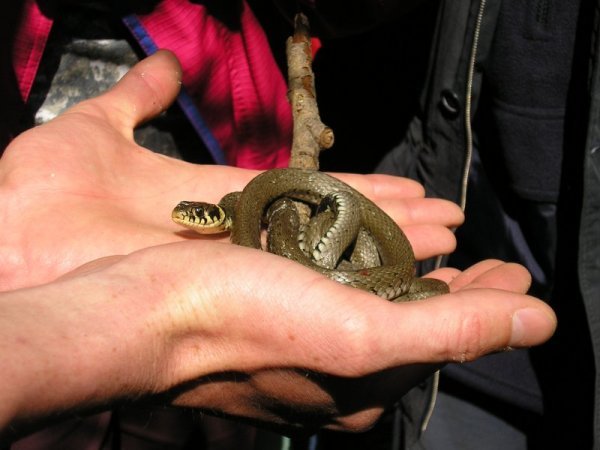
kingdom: Animalia
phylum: Chordata
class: Squamata
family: Colubridae
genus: Natrix
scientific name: Natrix natrix
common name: Grass snake
